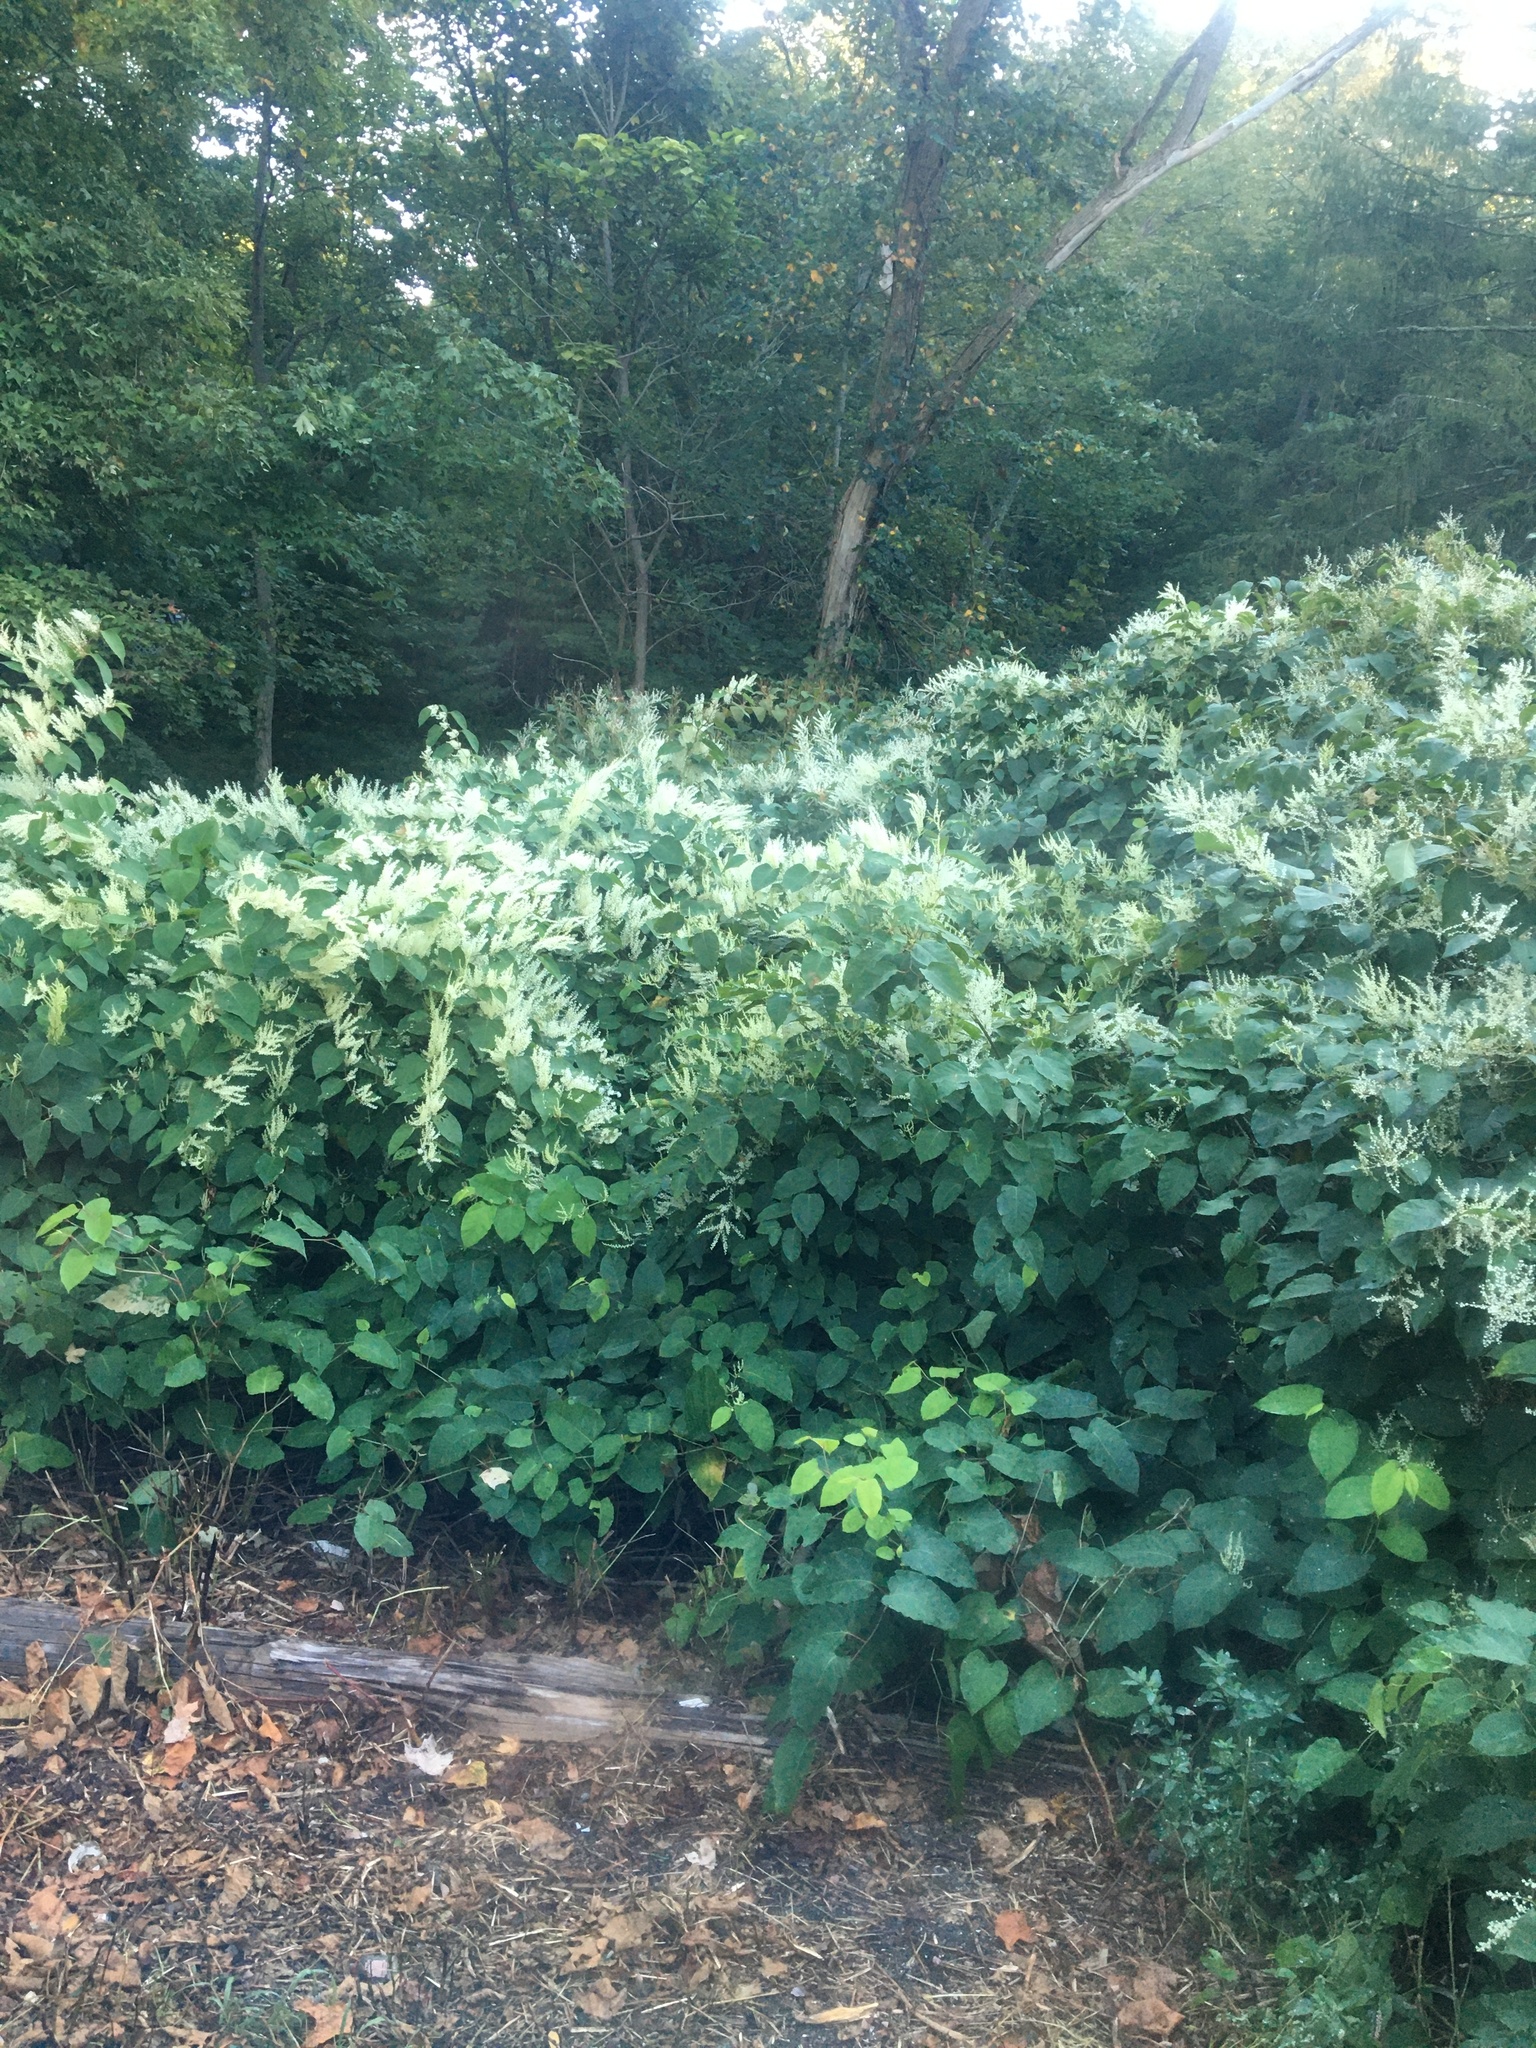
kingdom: Plantae
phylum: Tracheophyta
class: Magnoliopsida
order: Caryophyllales
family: Polygonaceae
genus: Reynoutria
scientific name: Reynoutria japonica
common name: Japanese knotweed
